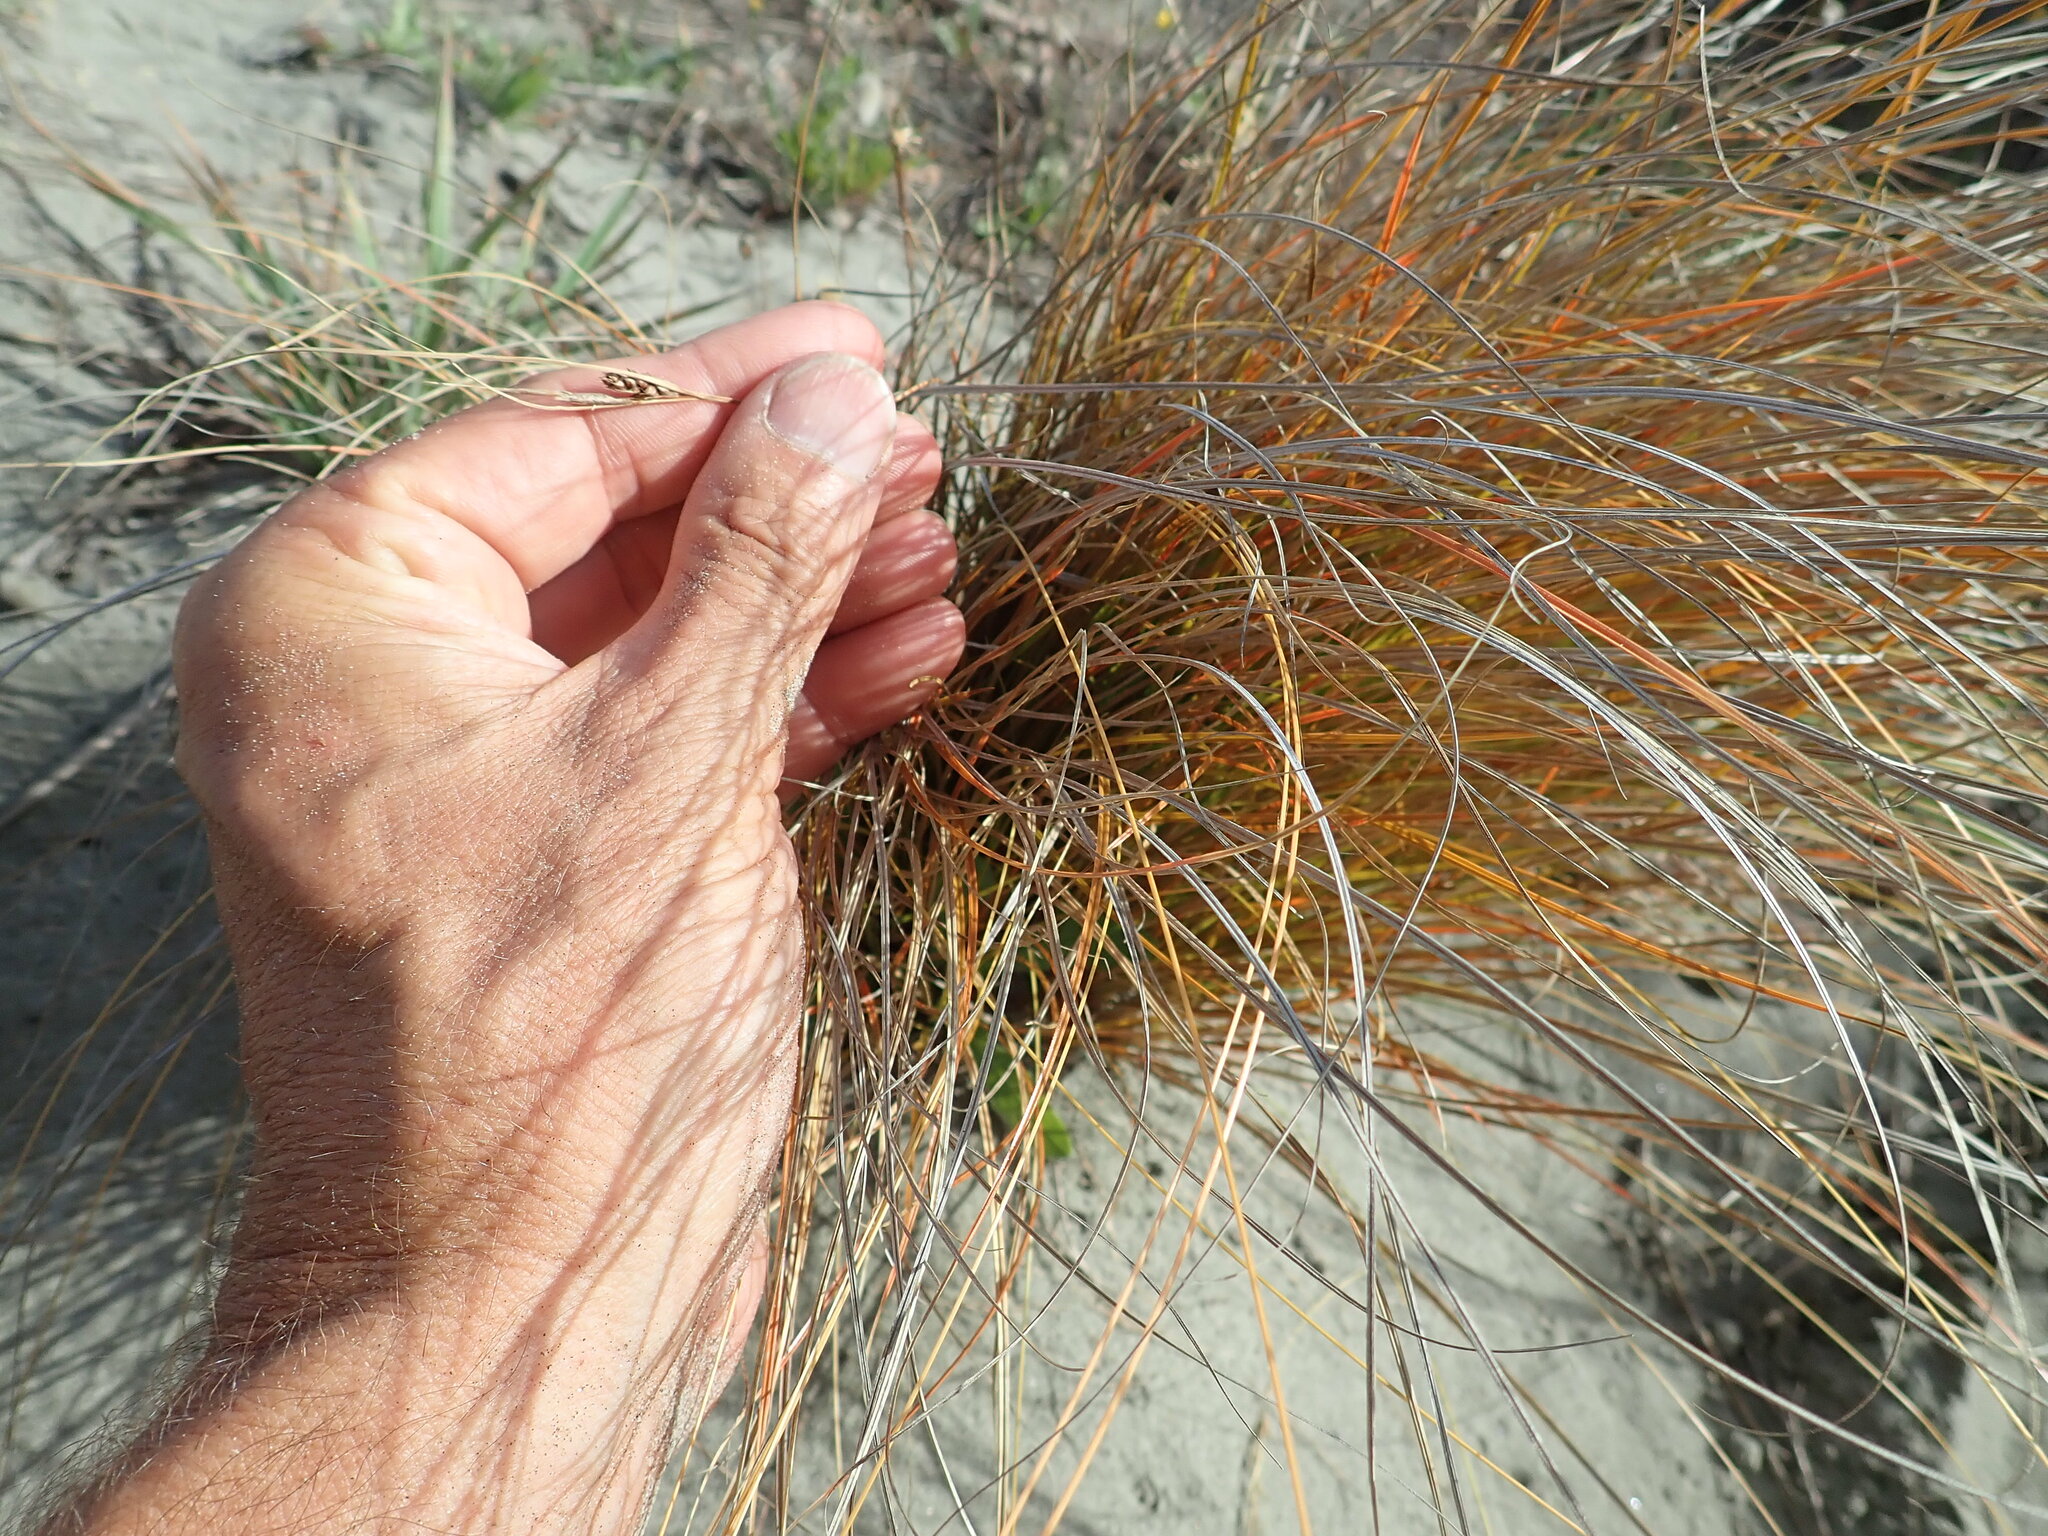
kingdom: Plantae
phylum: Tracheophyta
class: Liliopsida
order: Poales
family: Cyperaceae
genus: Carex
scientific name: Carex testacea
